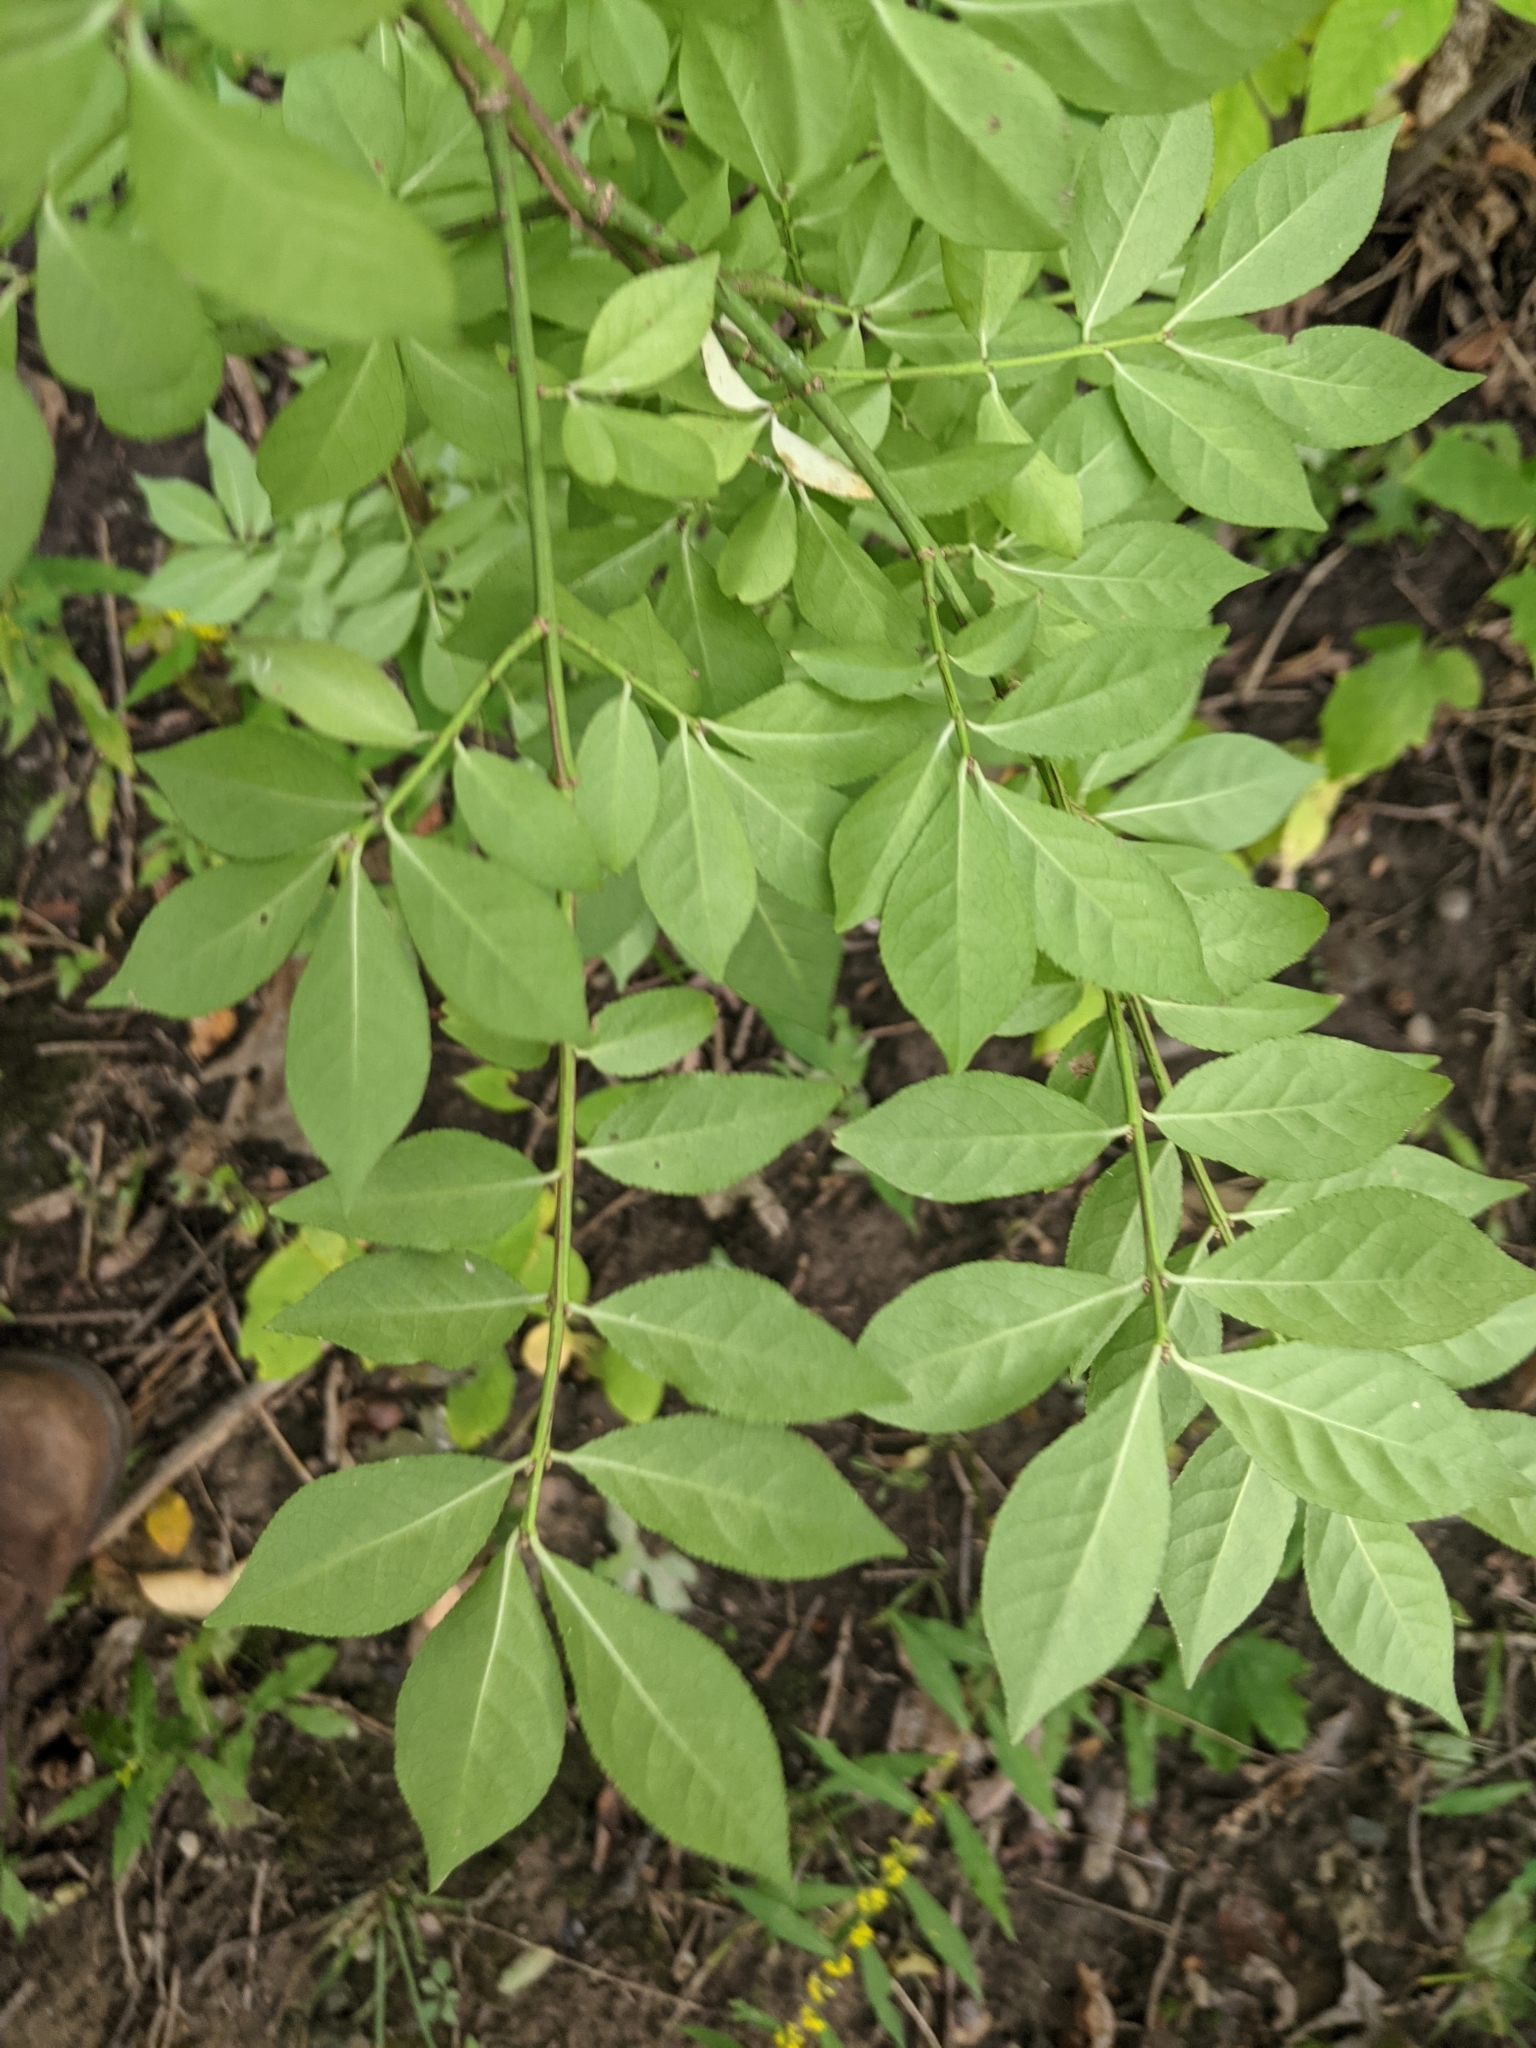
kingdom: Plantae
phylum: Tracheophyta
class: Magnoliopsida
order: Celastrales
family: Celastraceae
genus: Euonymus
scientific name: Euonymus alatus
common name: Winged euonymus
